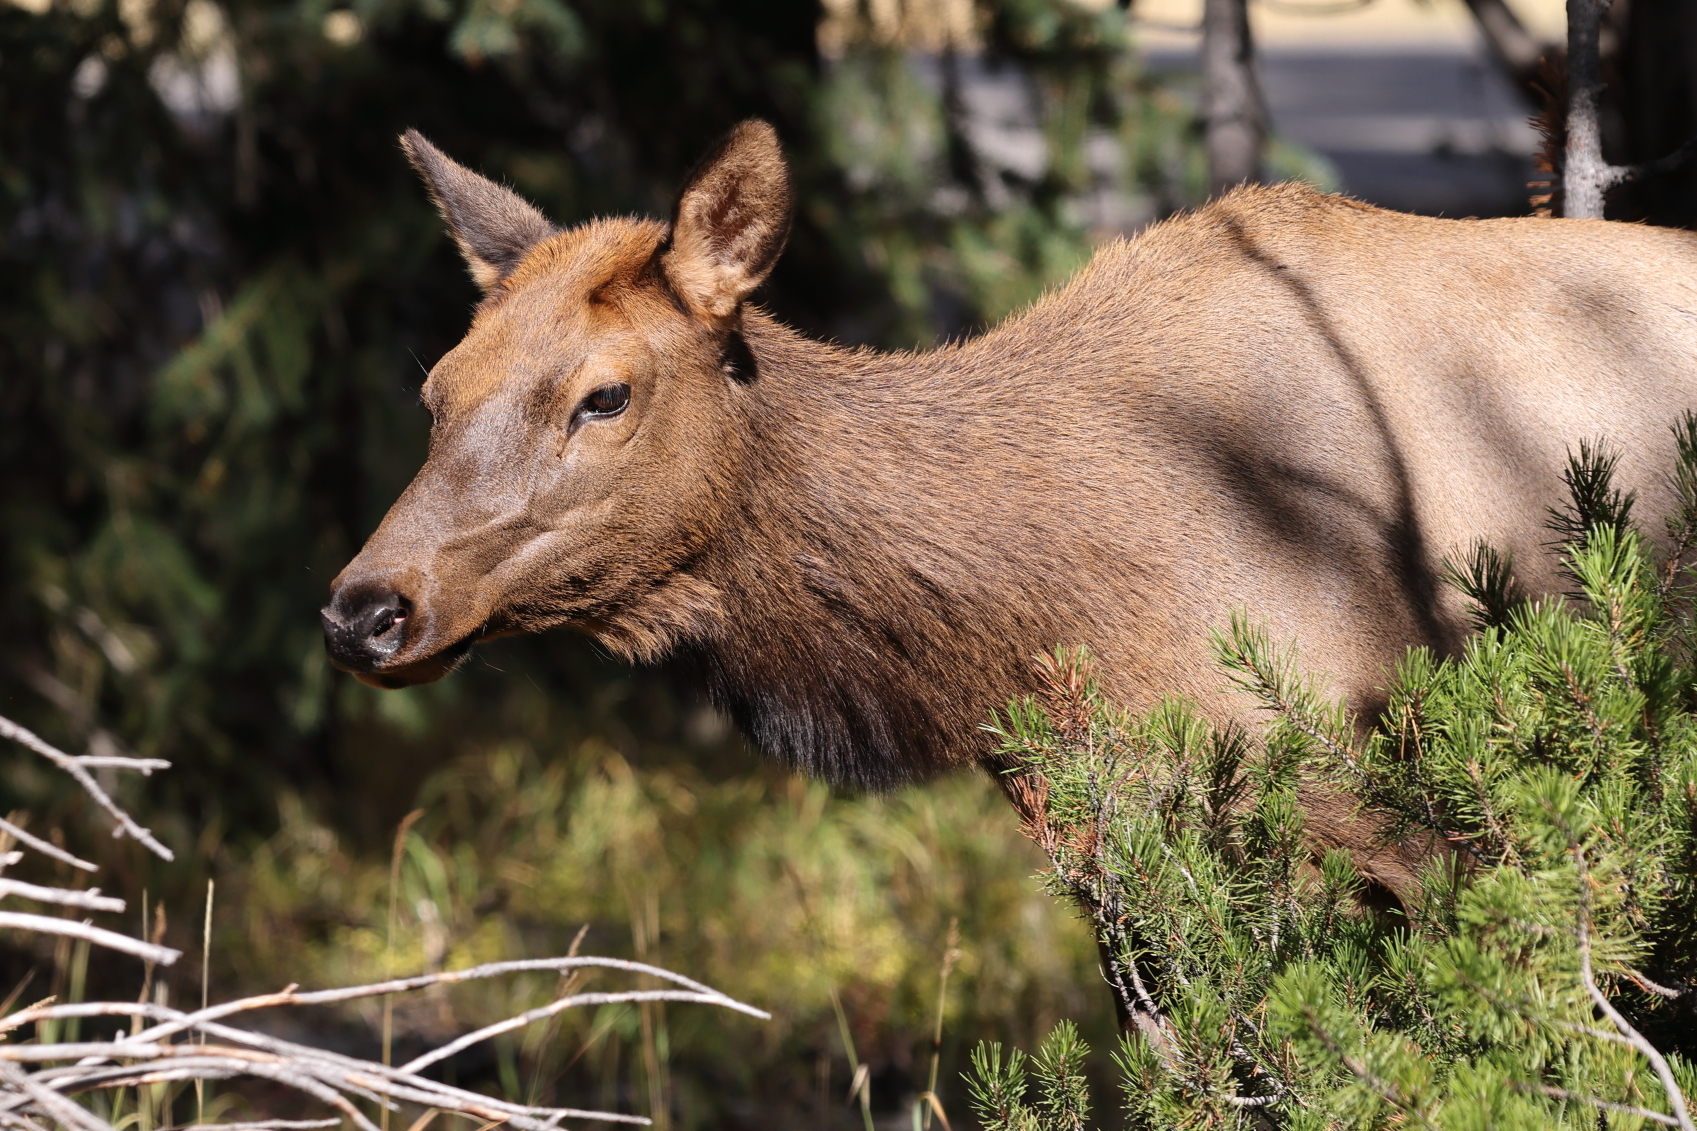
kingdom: Animalia
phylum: Chordata
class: Mammalia
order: Artiodactyla
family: Cervidae
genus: Cervus
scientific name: Cervus elaphus
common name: Red deer
